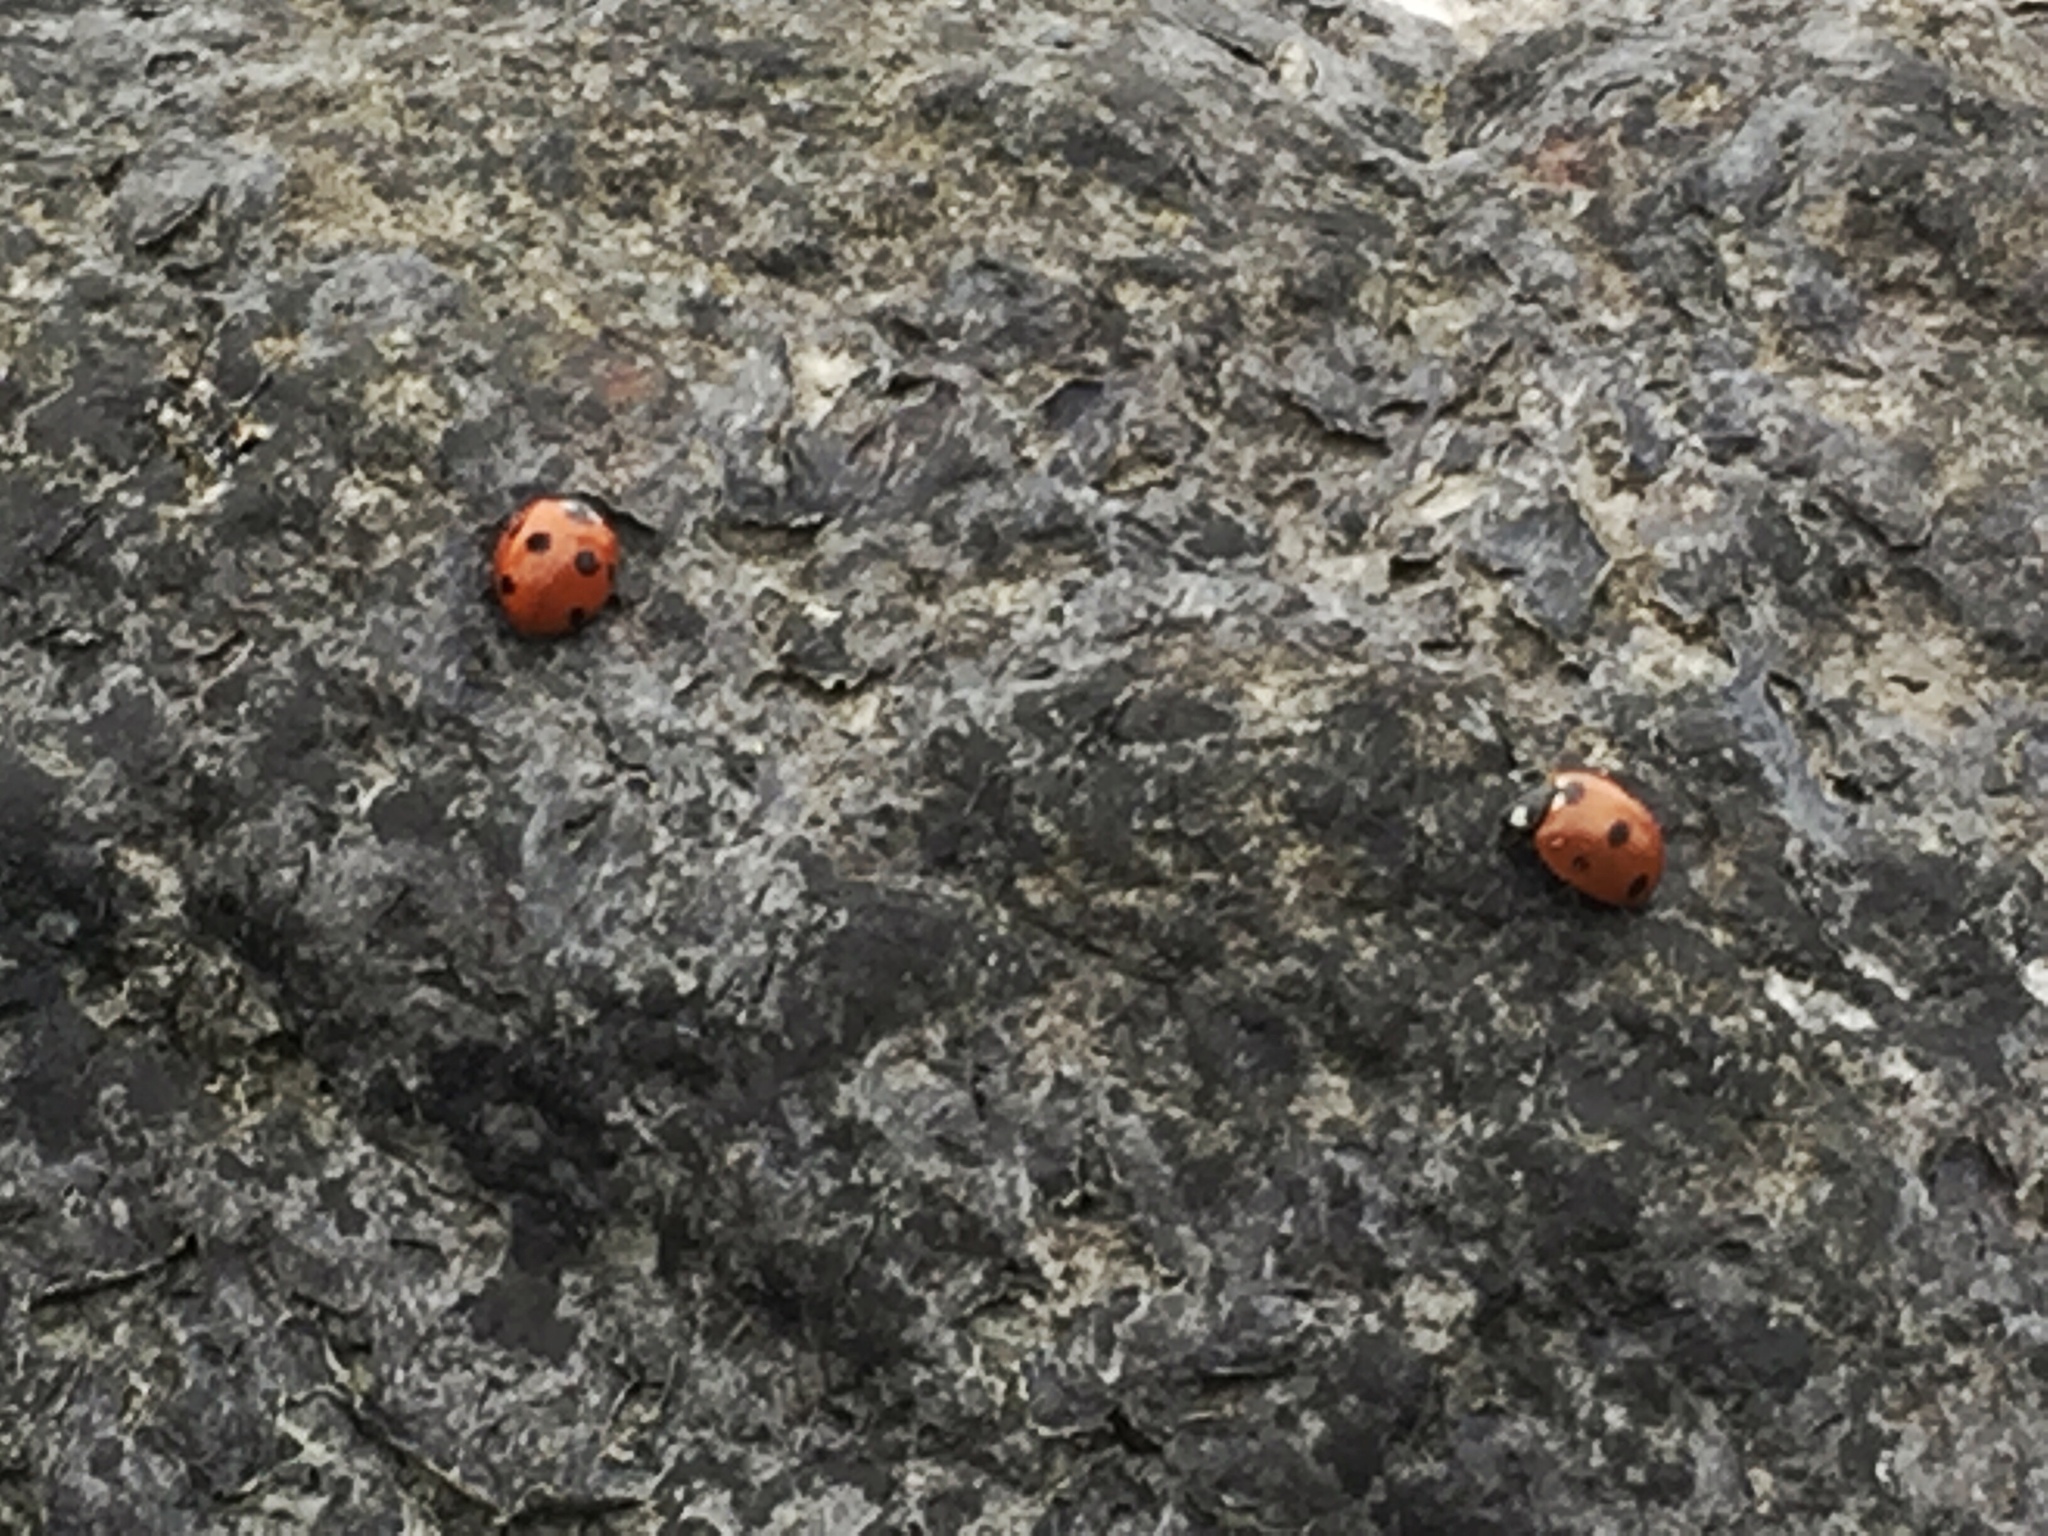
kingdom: Animalia
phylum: Arthropoda
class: Insecta
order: Coleoptera
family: Coccinellidae
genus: Coccinella
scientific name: Coccinella septempunctata
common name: Sevenspotted lady beetle
